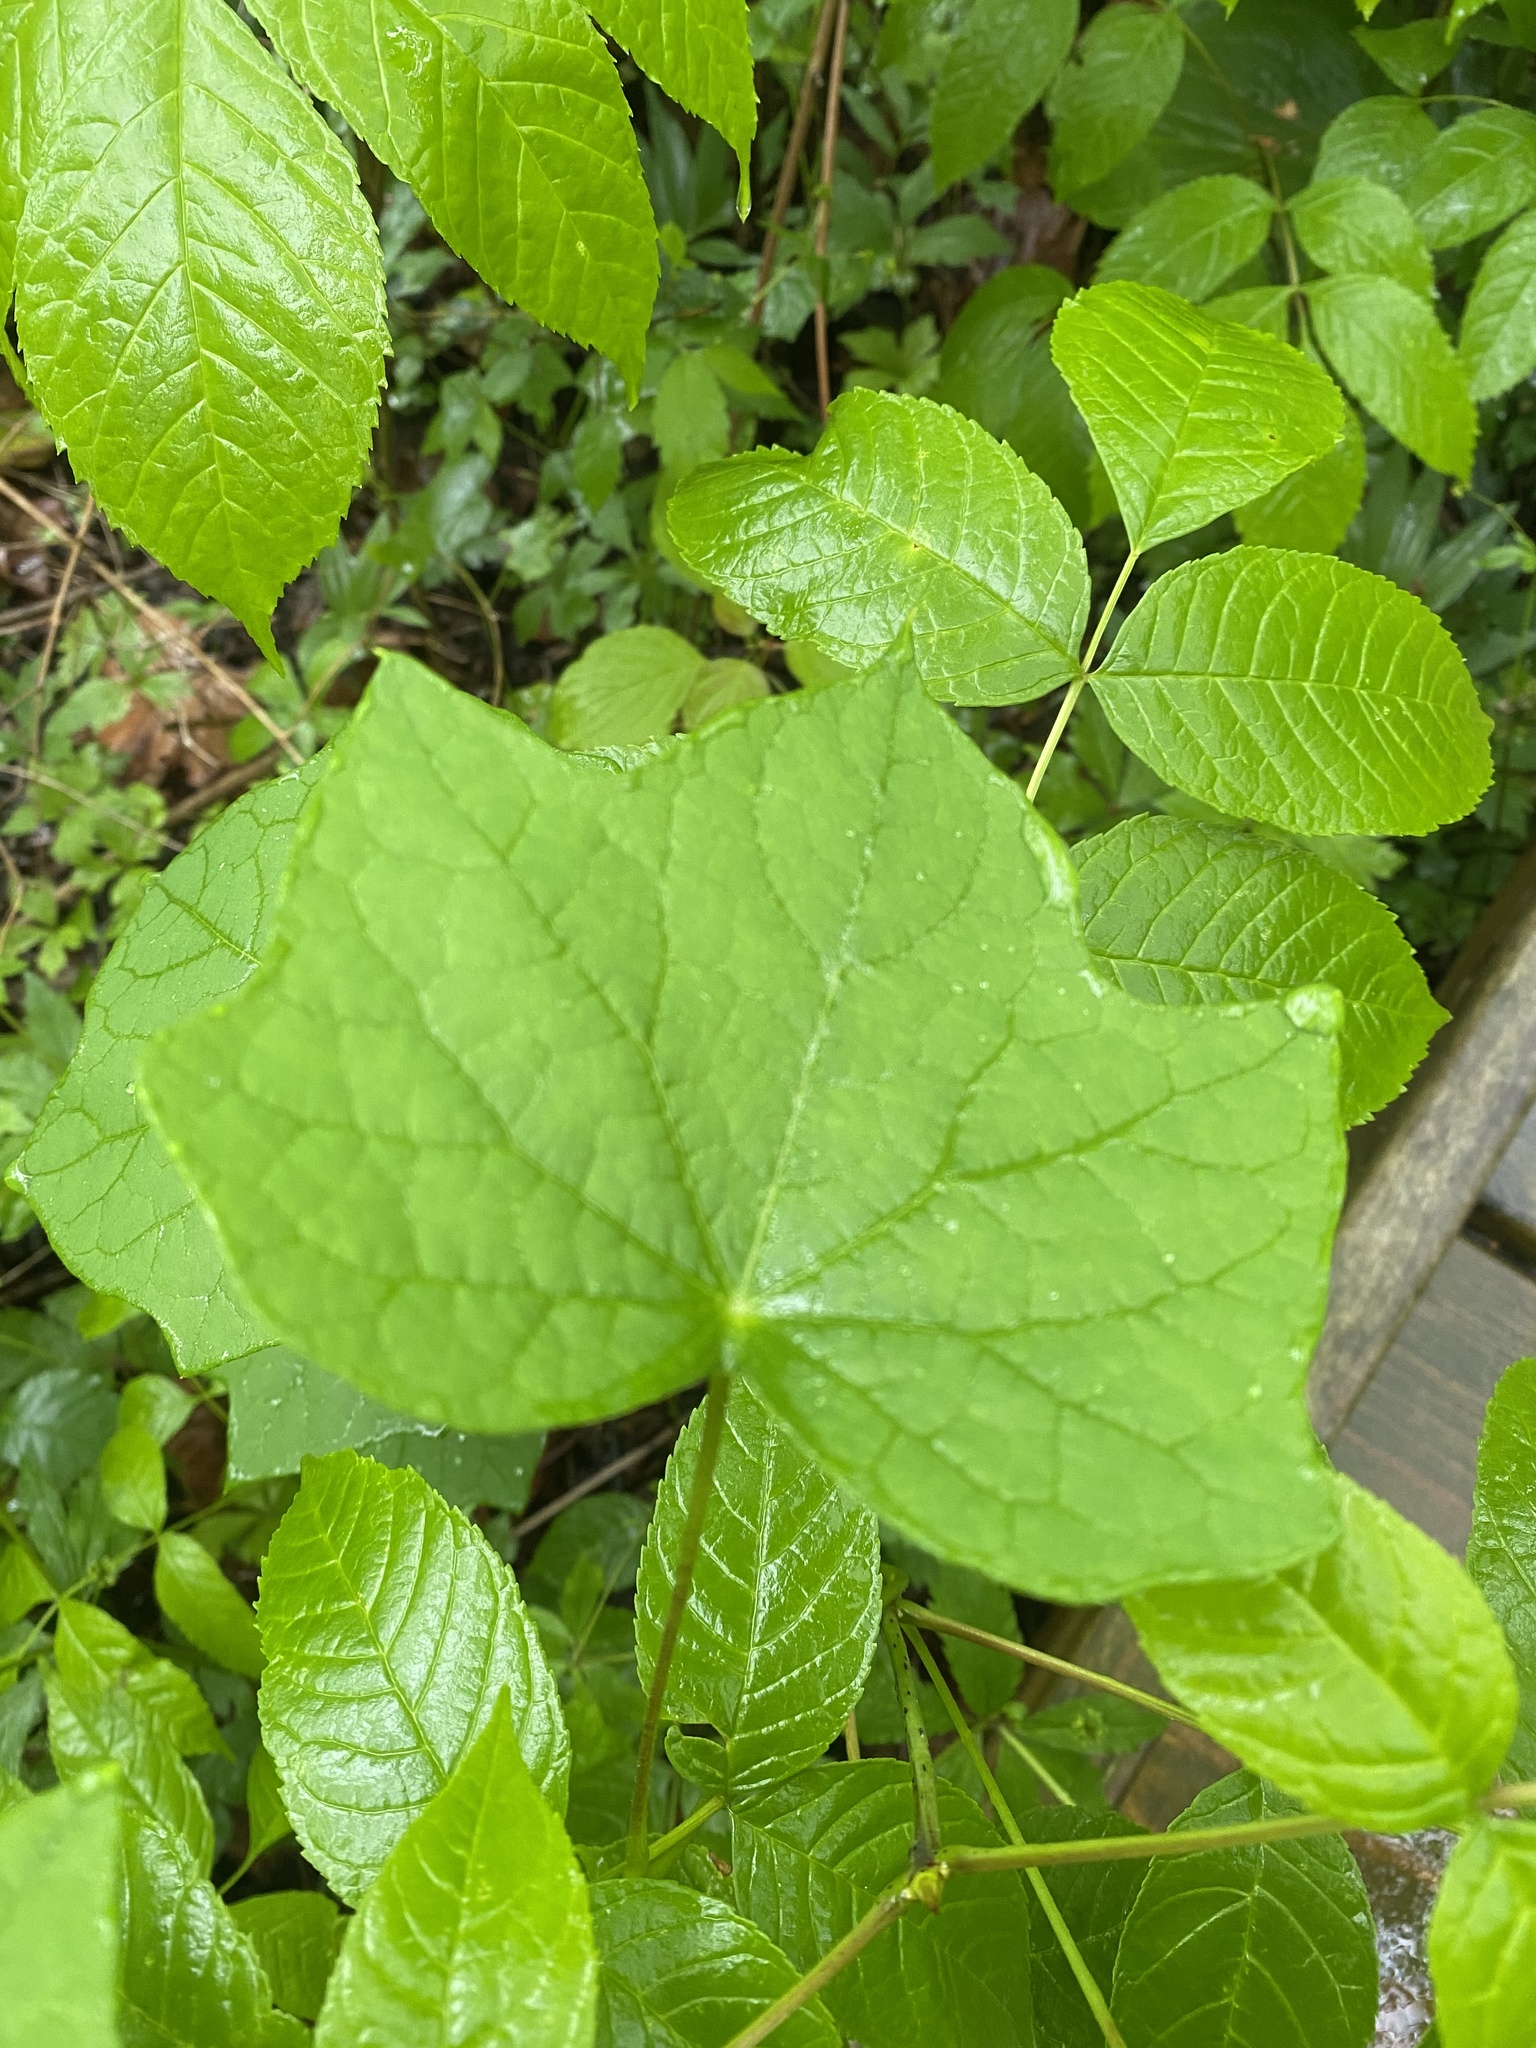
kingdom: Plantae
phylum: Tracheophyta
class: Magnoliopsida
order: Ranunculales
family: Menispermaceae
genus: Menispermum
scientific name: Menispermum canadense
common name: Moonseed
